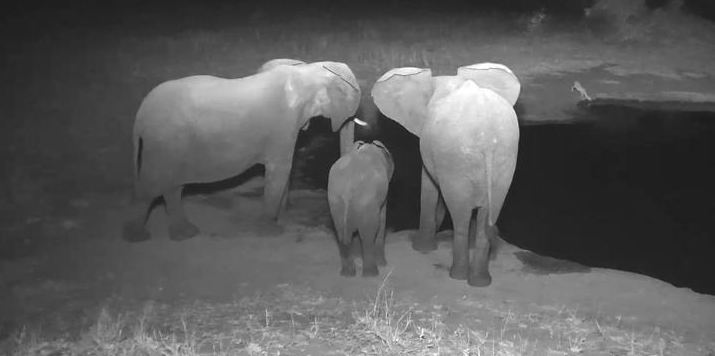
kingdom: Animalia
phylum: Chordata
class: Mammalia
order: Proboscidea
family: Elephantidae
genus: Loxodonta
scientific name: Loxodonta africana
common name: African elephant
